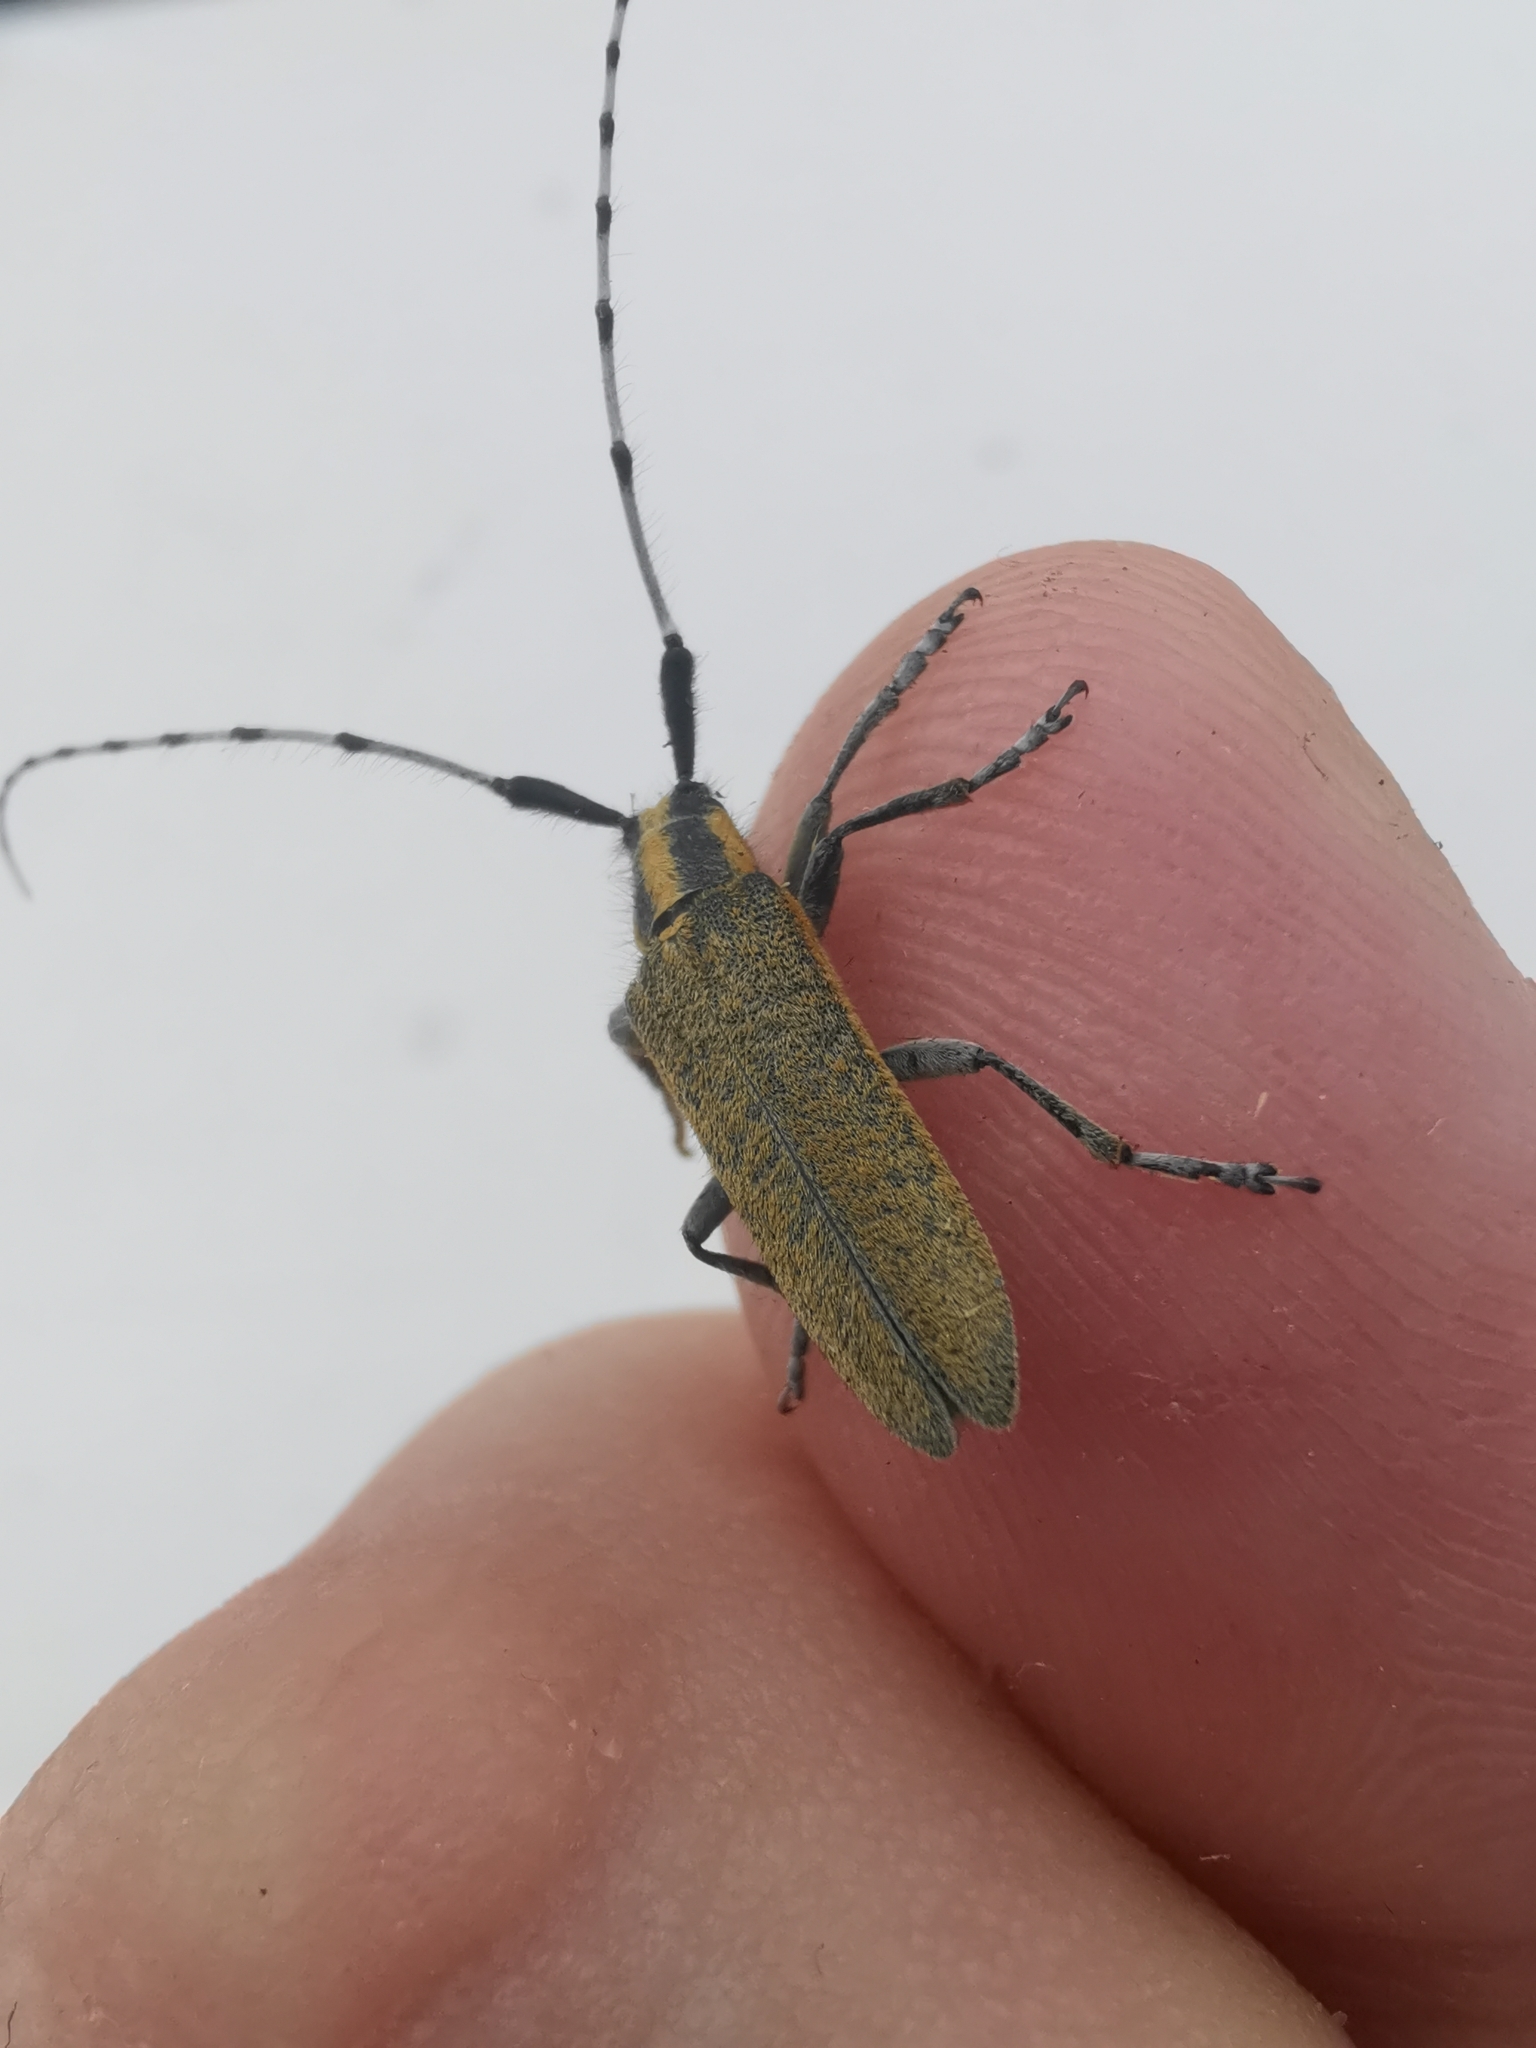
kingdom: Animalia
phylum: Arthropoda
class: Insecta
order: Coleoptera
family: Cerambycidae
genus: Agapanthia
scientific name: Agapanthia villosoviridescens
